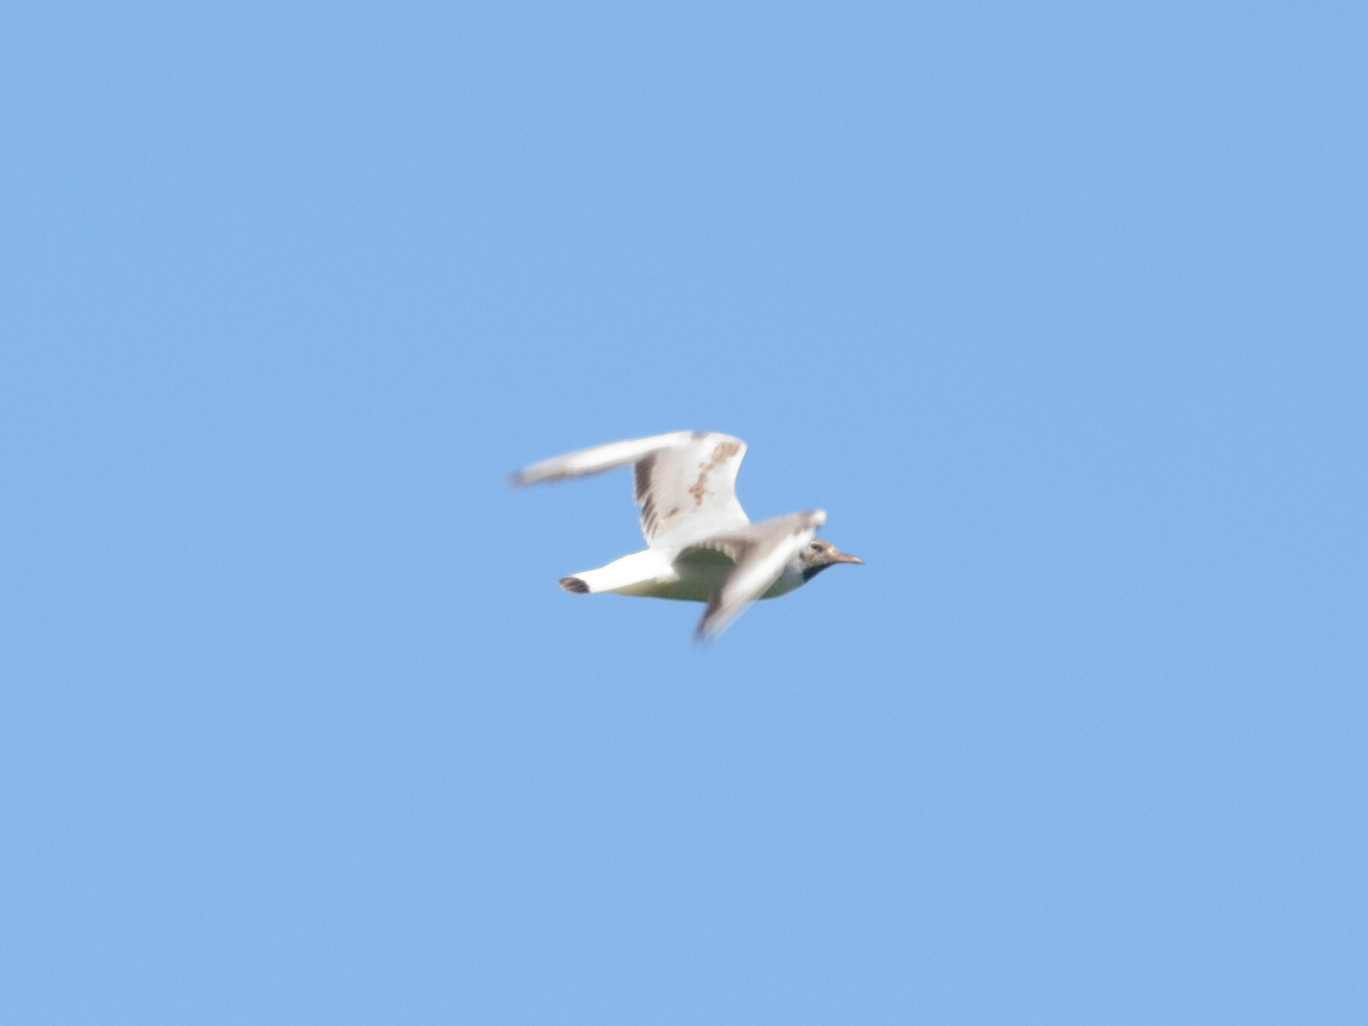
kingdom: Animalia
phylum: Chordata
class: Aves
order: Charadriiformes
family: Laridae
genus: Chroicocephalus
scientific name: Chroicocephalus ridibundus
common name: Black-headed gull
